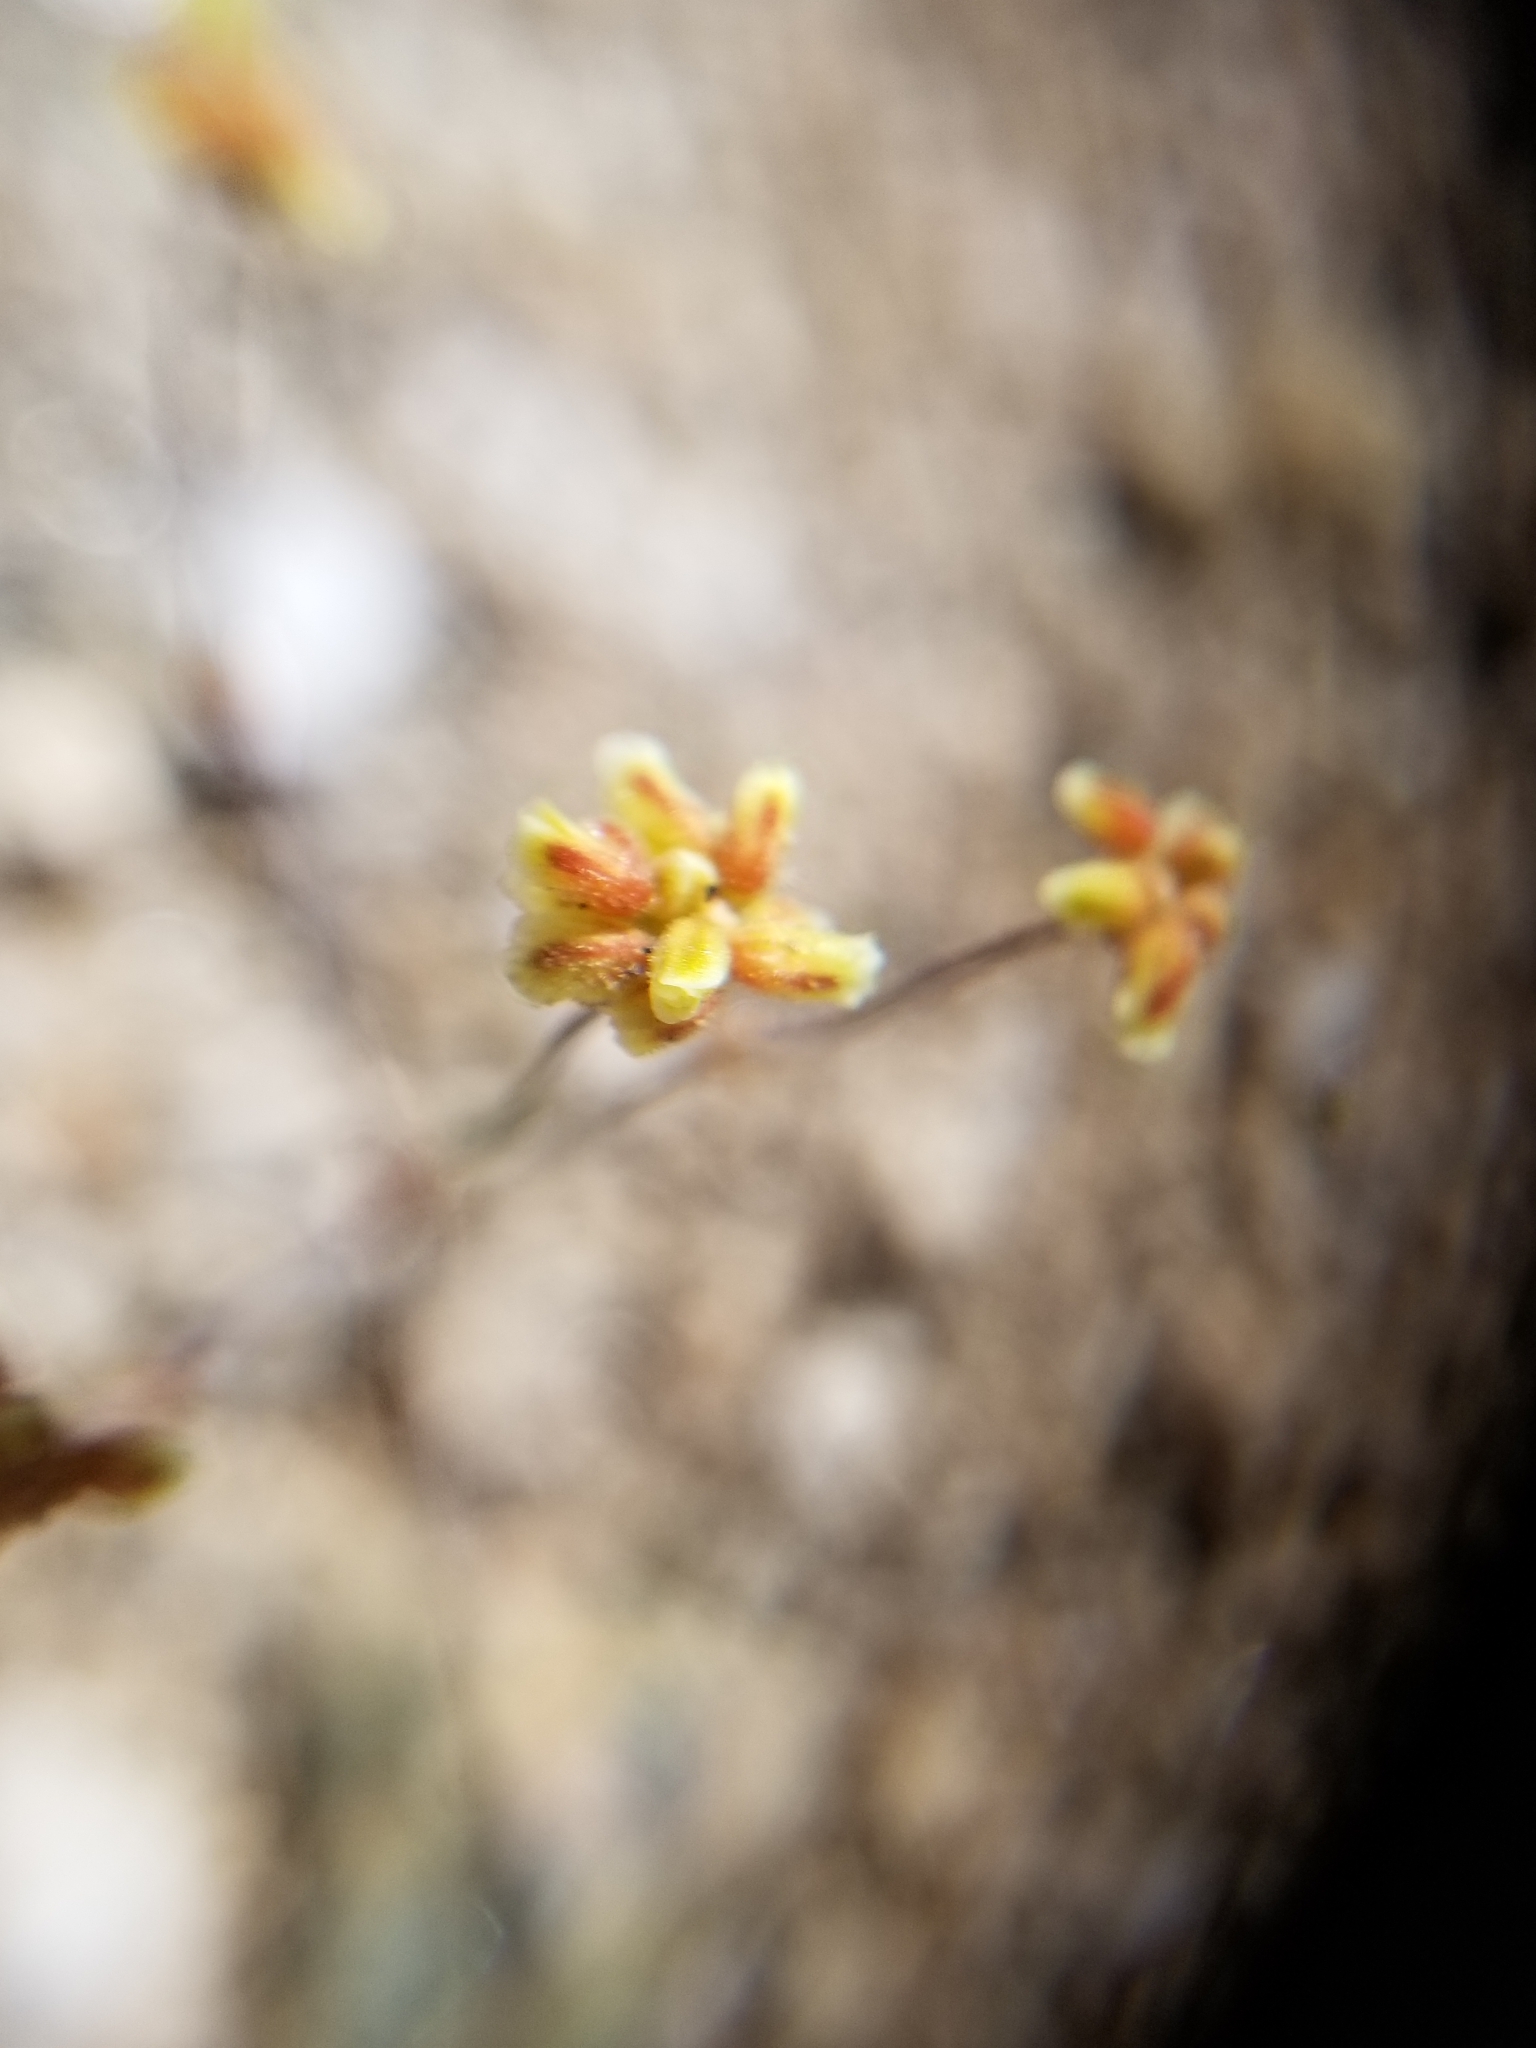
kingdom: Plantae
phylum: Tracheophyta
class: Magnoliopsida
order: Caryophyllales
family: Polygonaceae
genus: Eriogonum
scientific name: Eriogonum pusillum
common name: Yellow turbans
